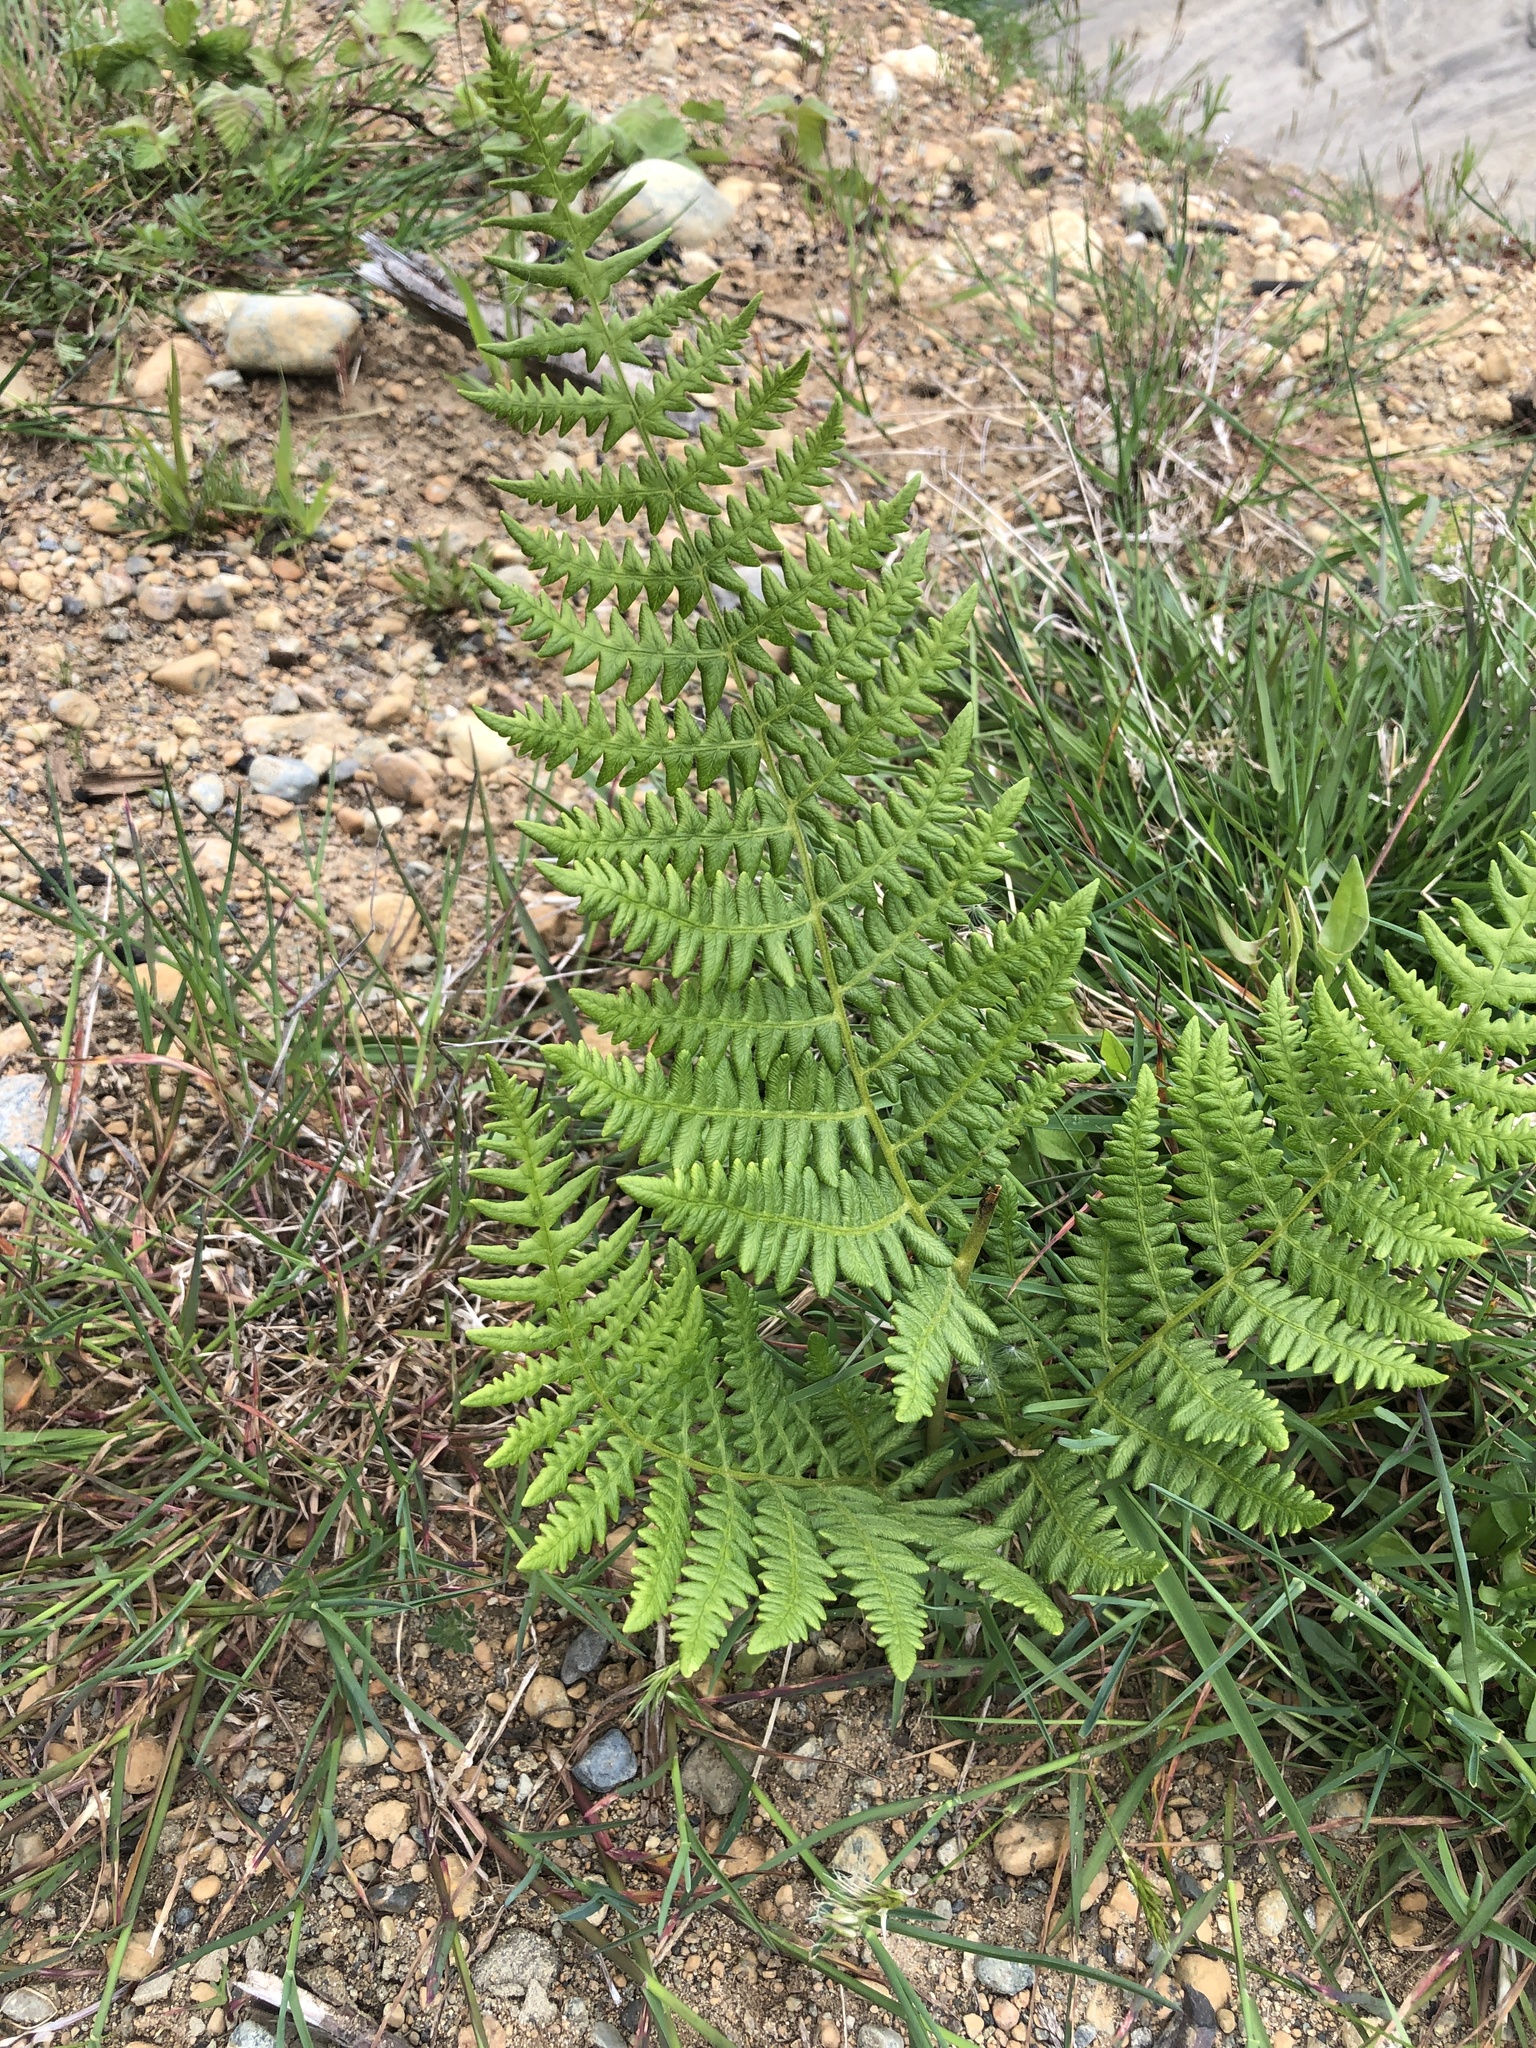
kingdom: Plantae
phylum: Tracheophyta
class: Polypodiopsida
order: Polypodiales
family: Dennstaedtiaceae
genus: Pteridium
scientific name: Pteridium aquilinum
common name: Bracken
